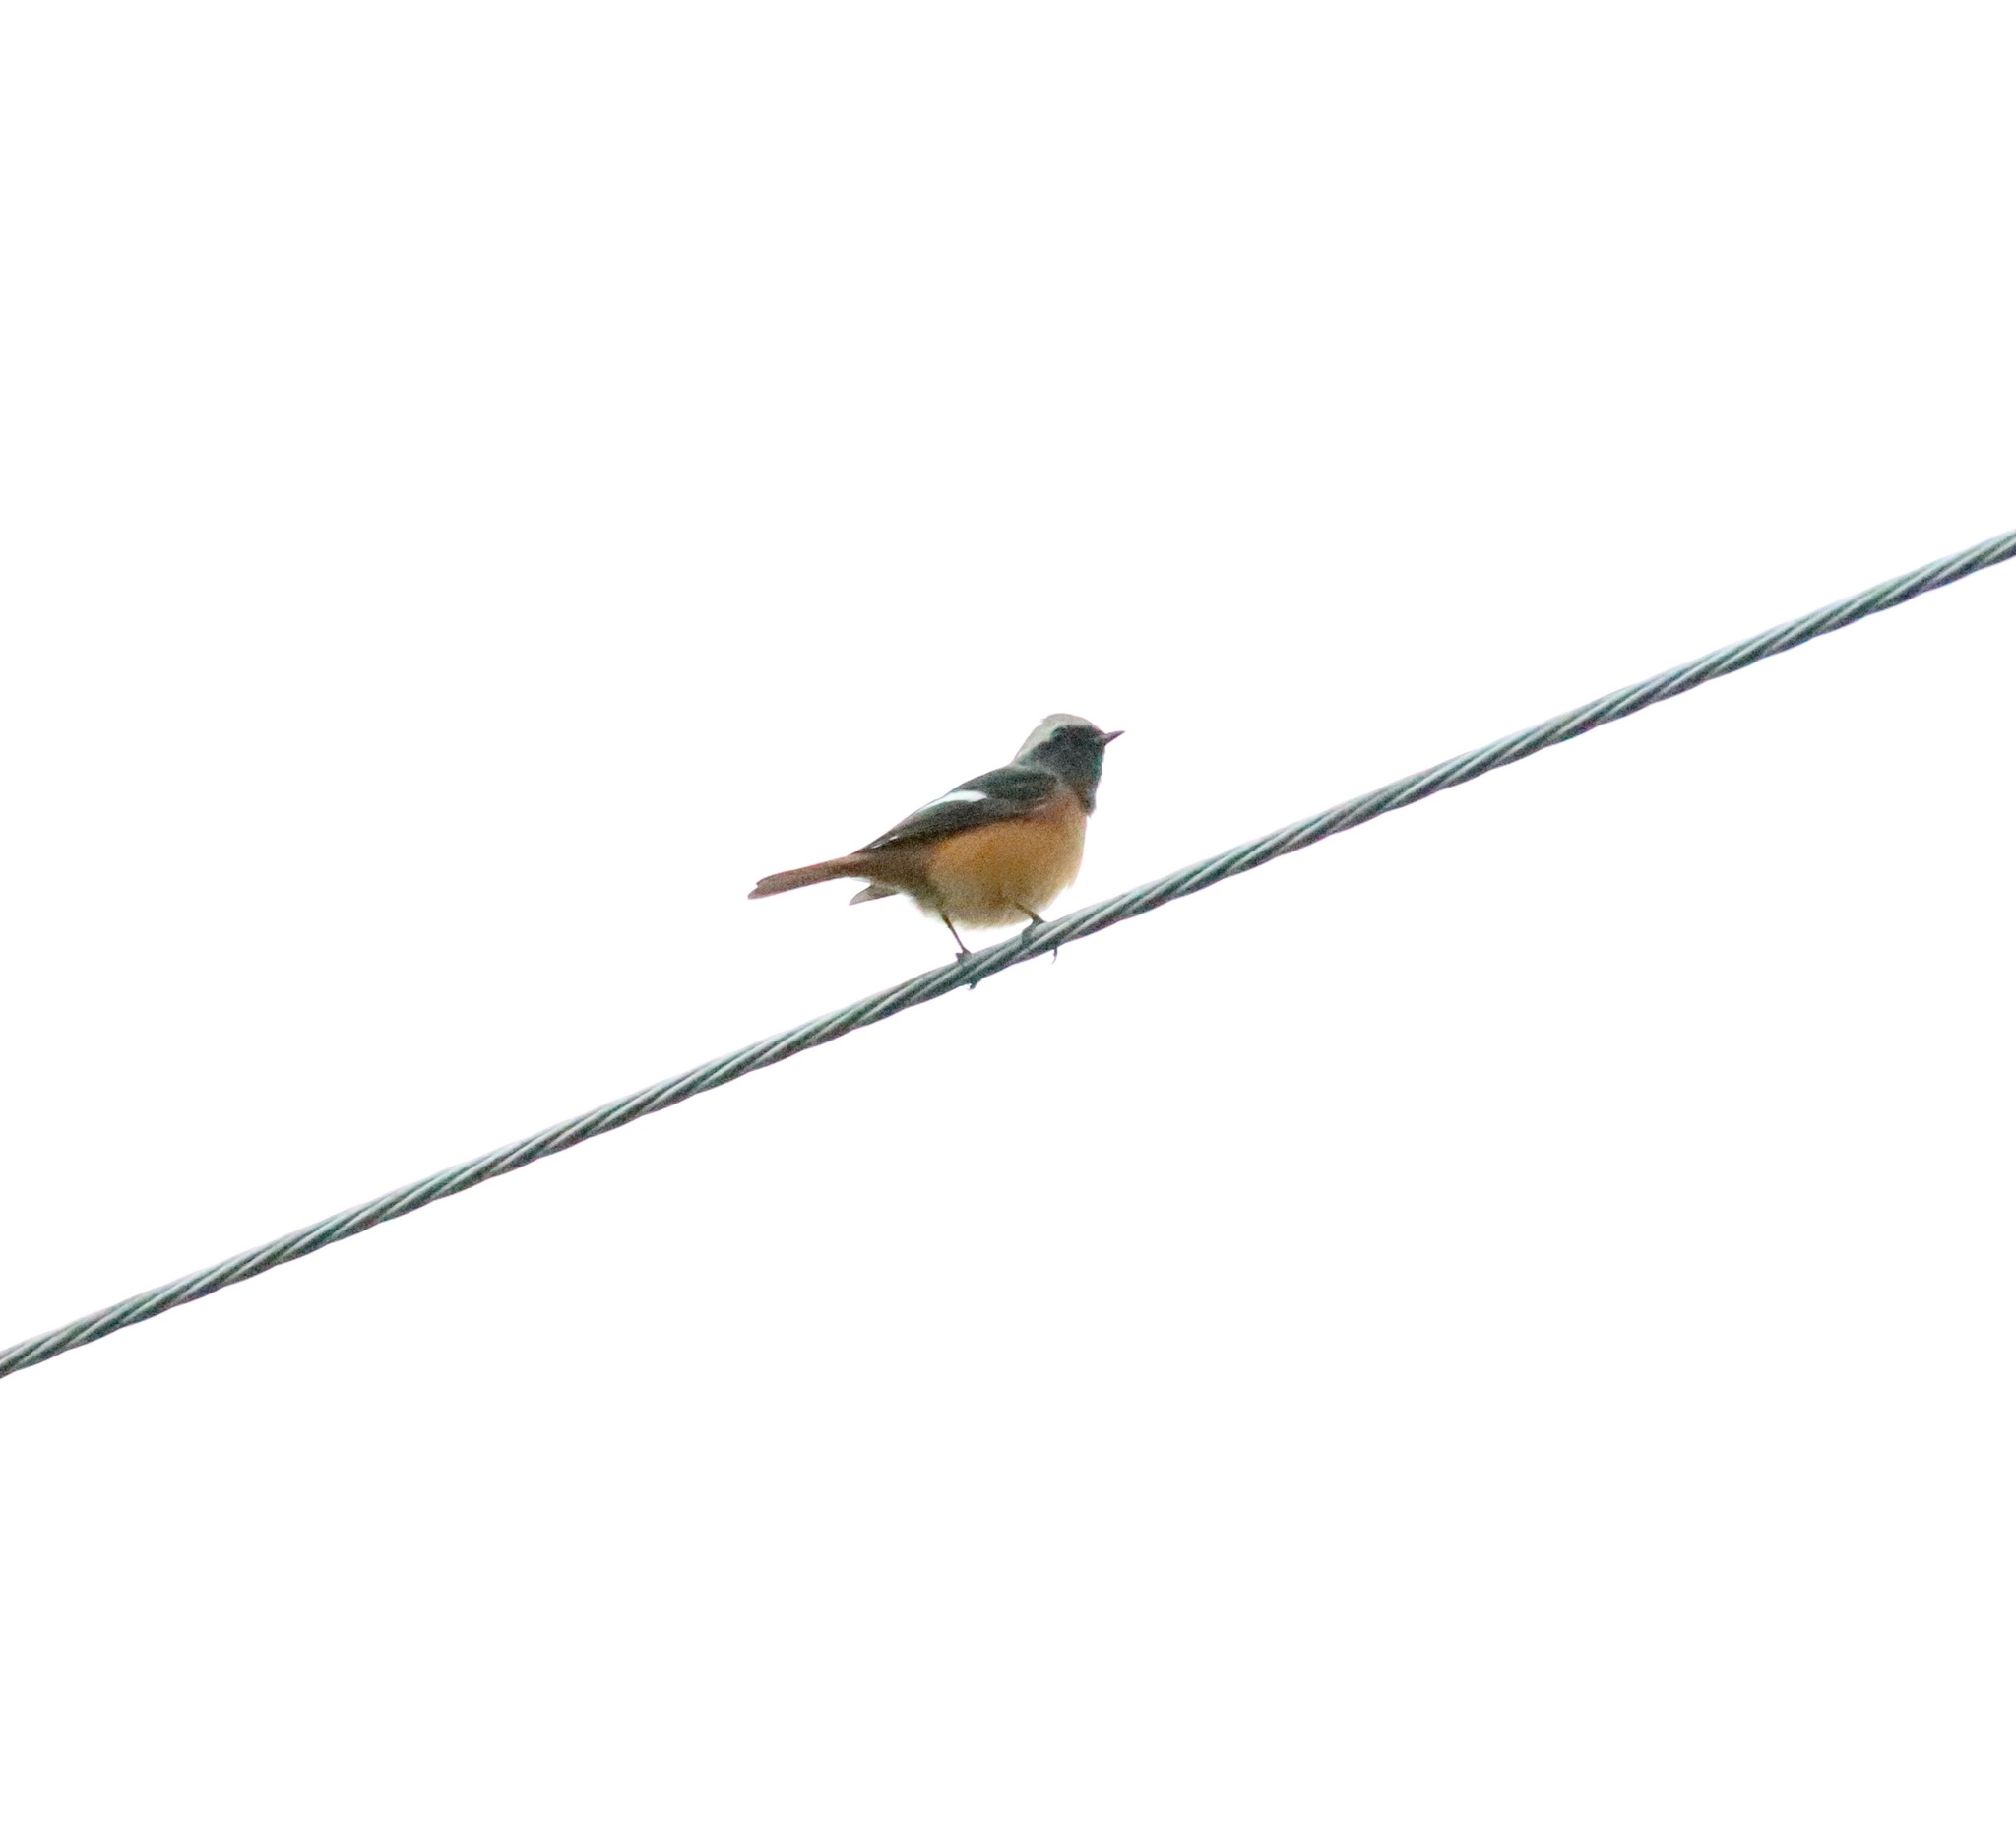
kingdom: Animalia
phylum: Chordata
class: Aves
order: Passeriformes
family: Muscicapidae
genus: Phoenicurus
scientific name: Phoenicurus auroreus
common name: Daurian redstart
